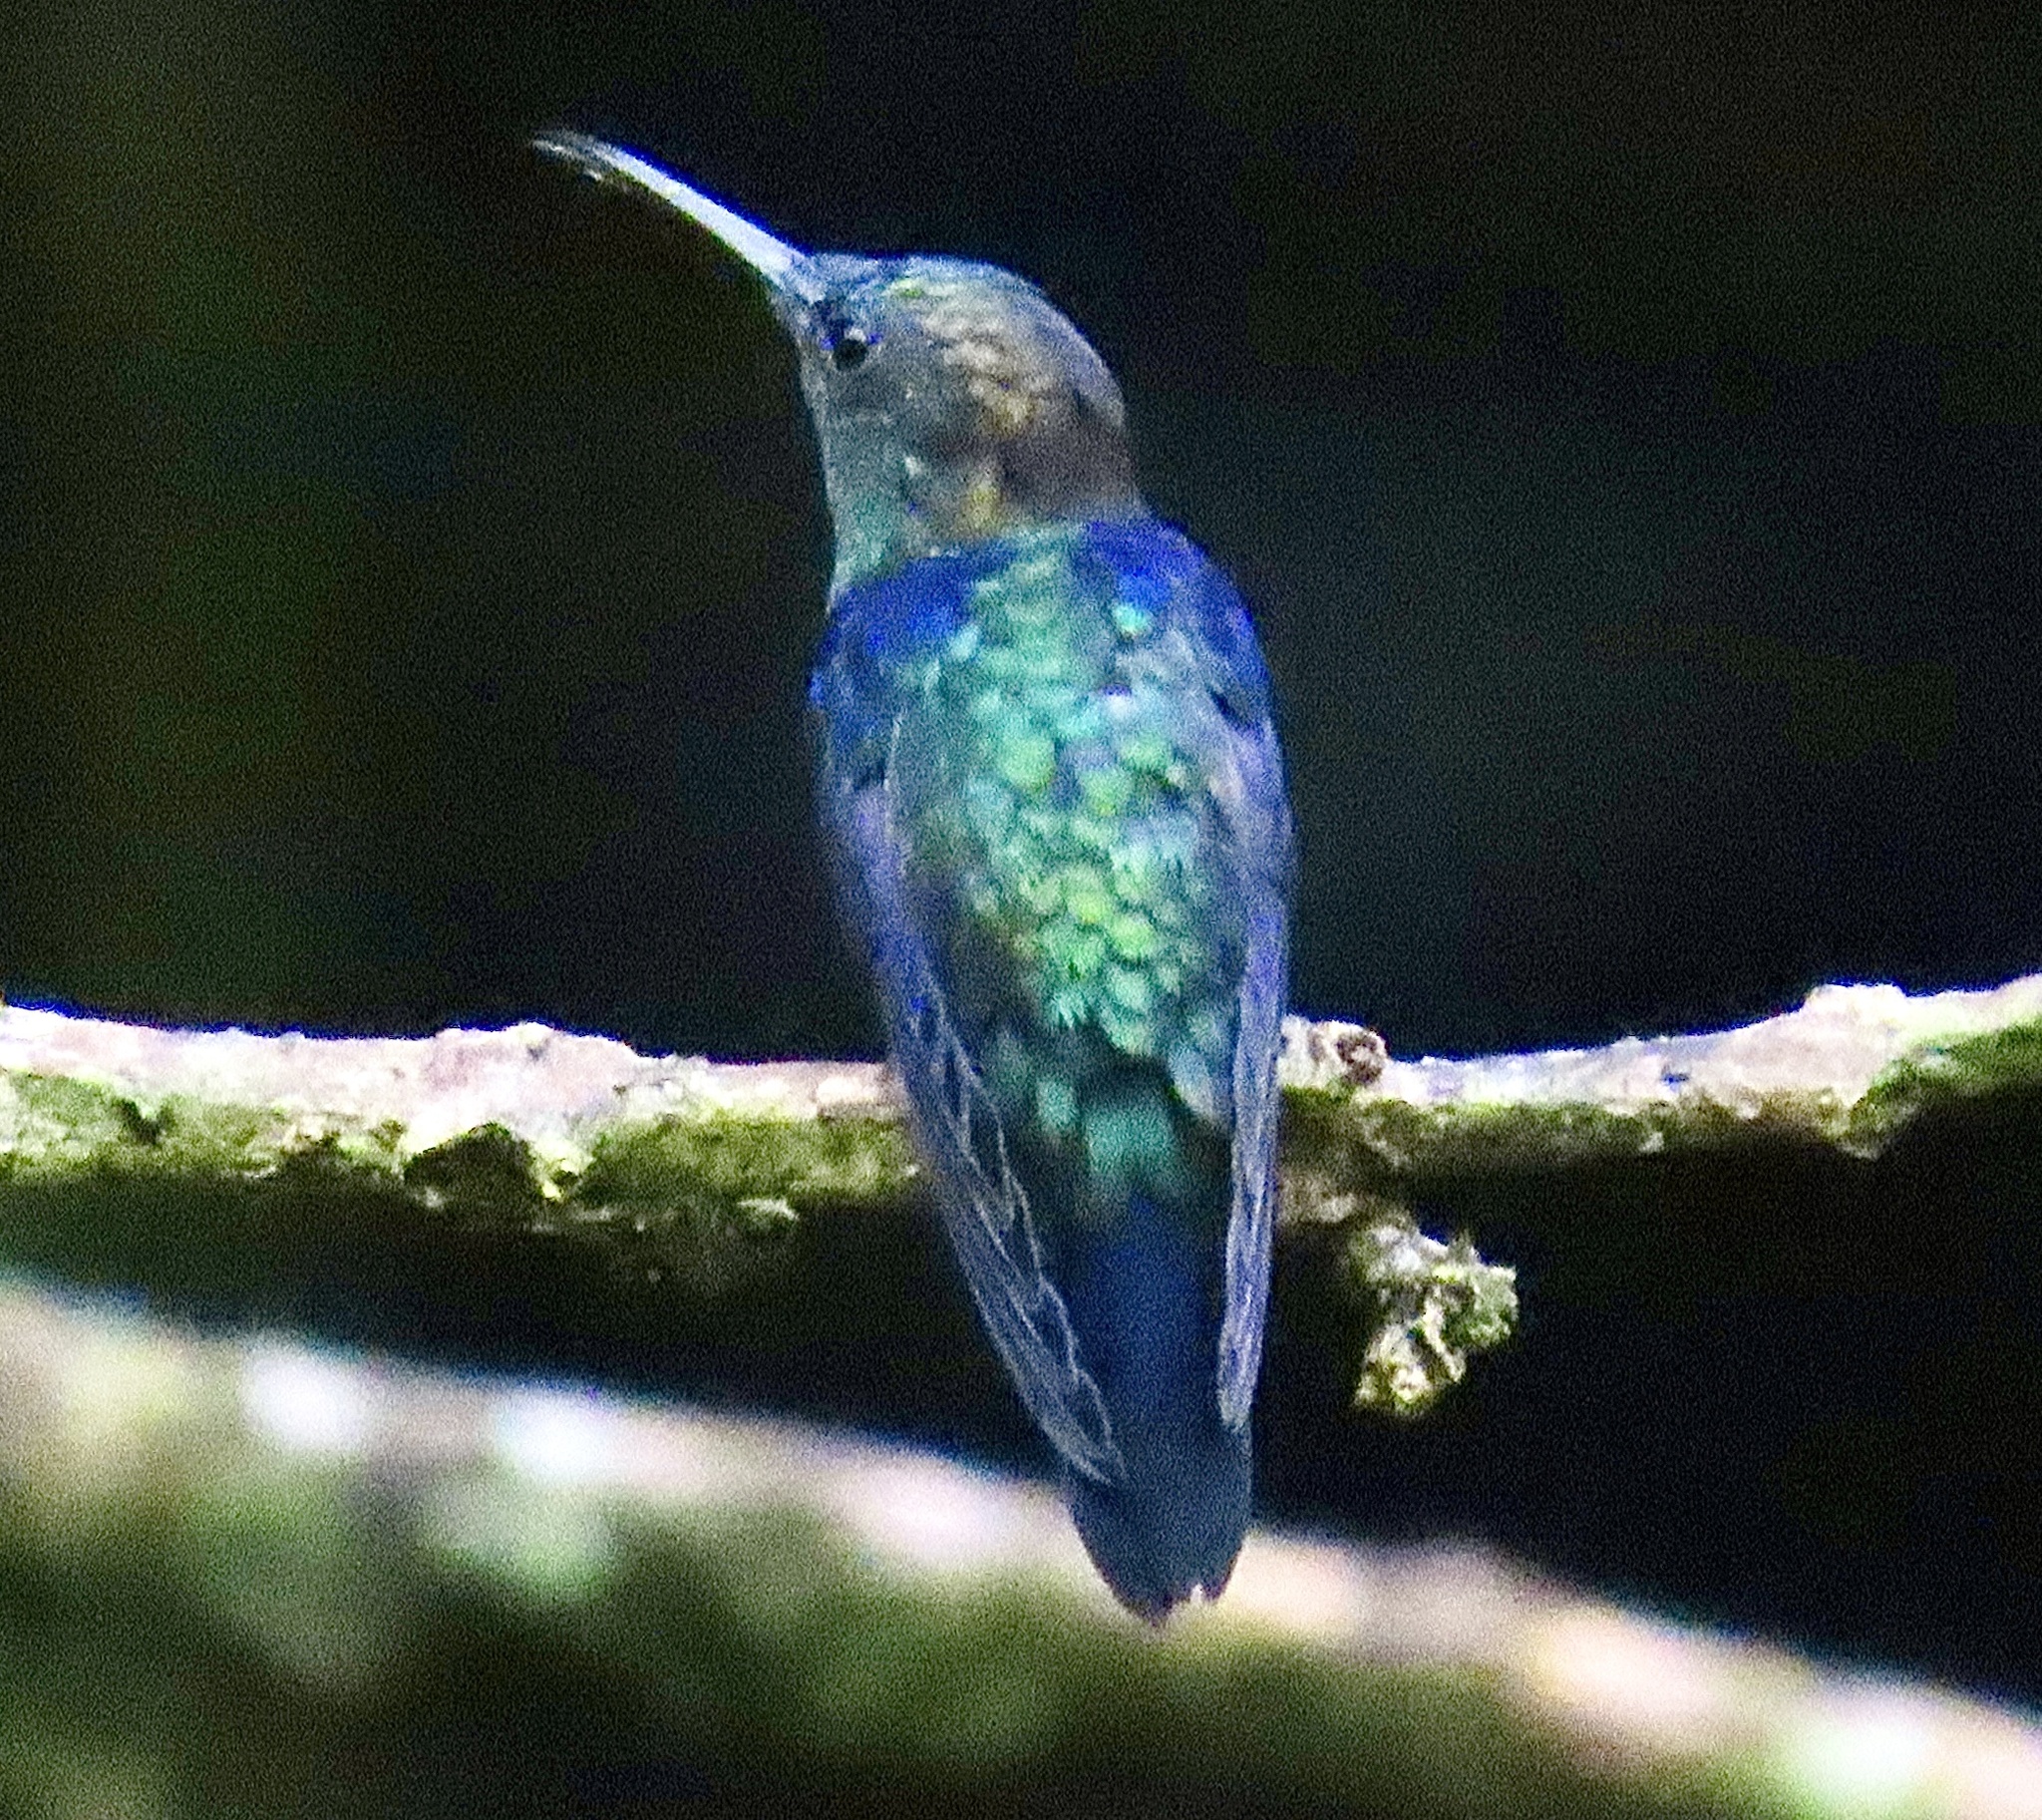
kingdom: Animalia
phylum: Chordata
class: Aves
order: Apodiformes
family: Trochilidae
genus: Thalurania
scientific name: Thalurania colombica
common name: Crowned woodnymph
